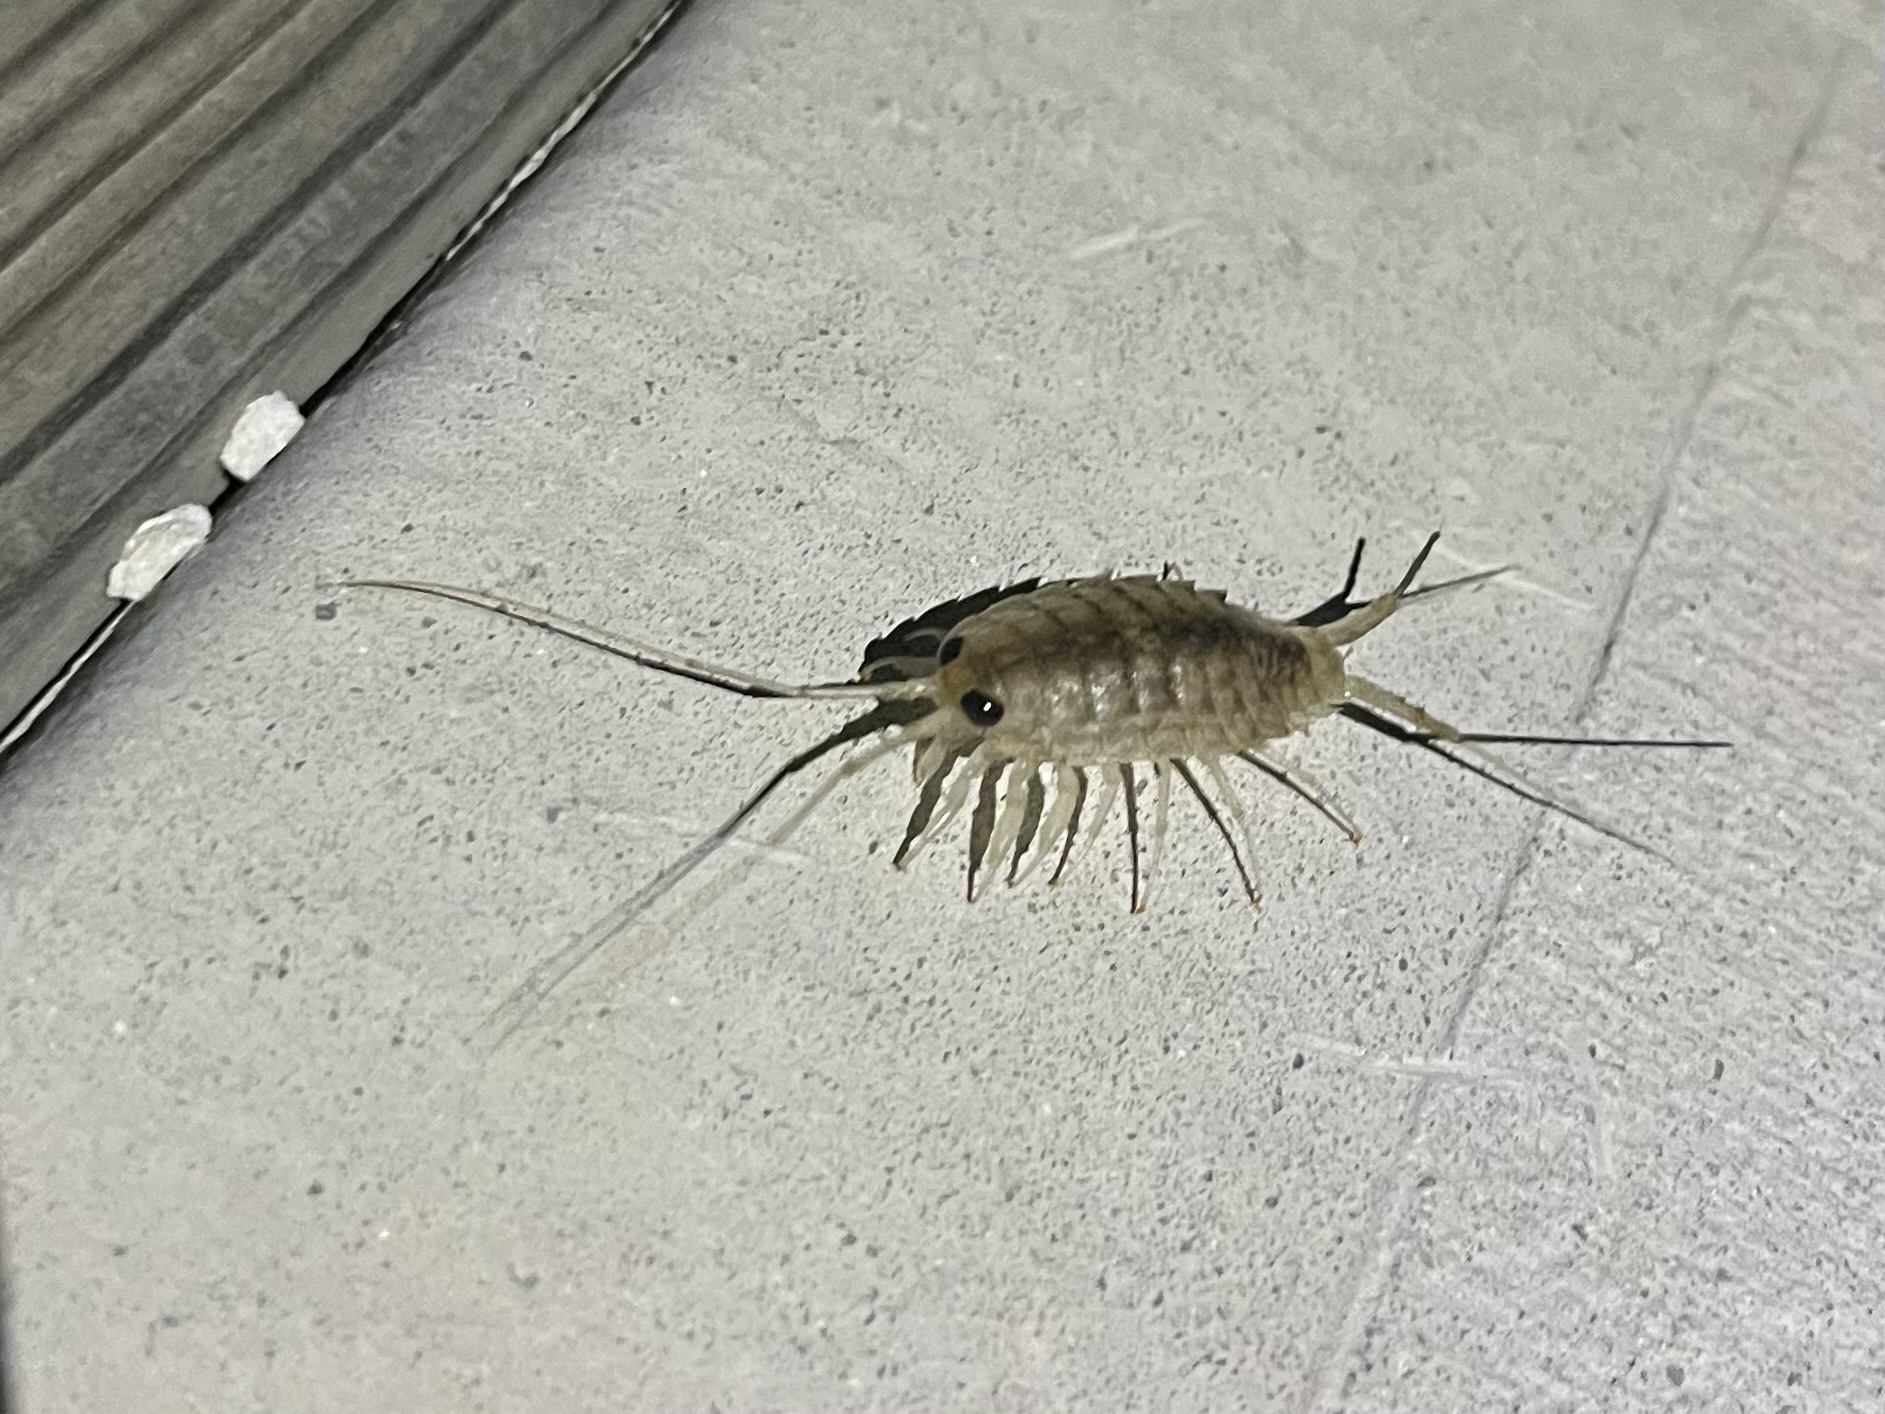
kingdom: Animalia
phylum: Arthropoda
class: Malacostraca
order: Isopoda
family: Ligiidae
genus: Ligia
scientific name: Ligia exotica
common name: Wharf roach
